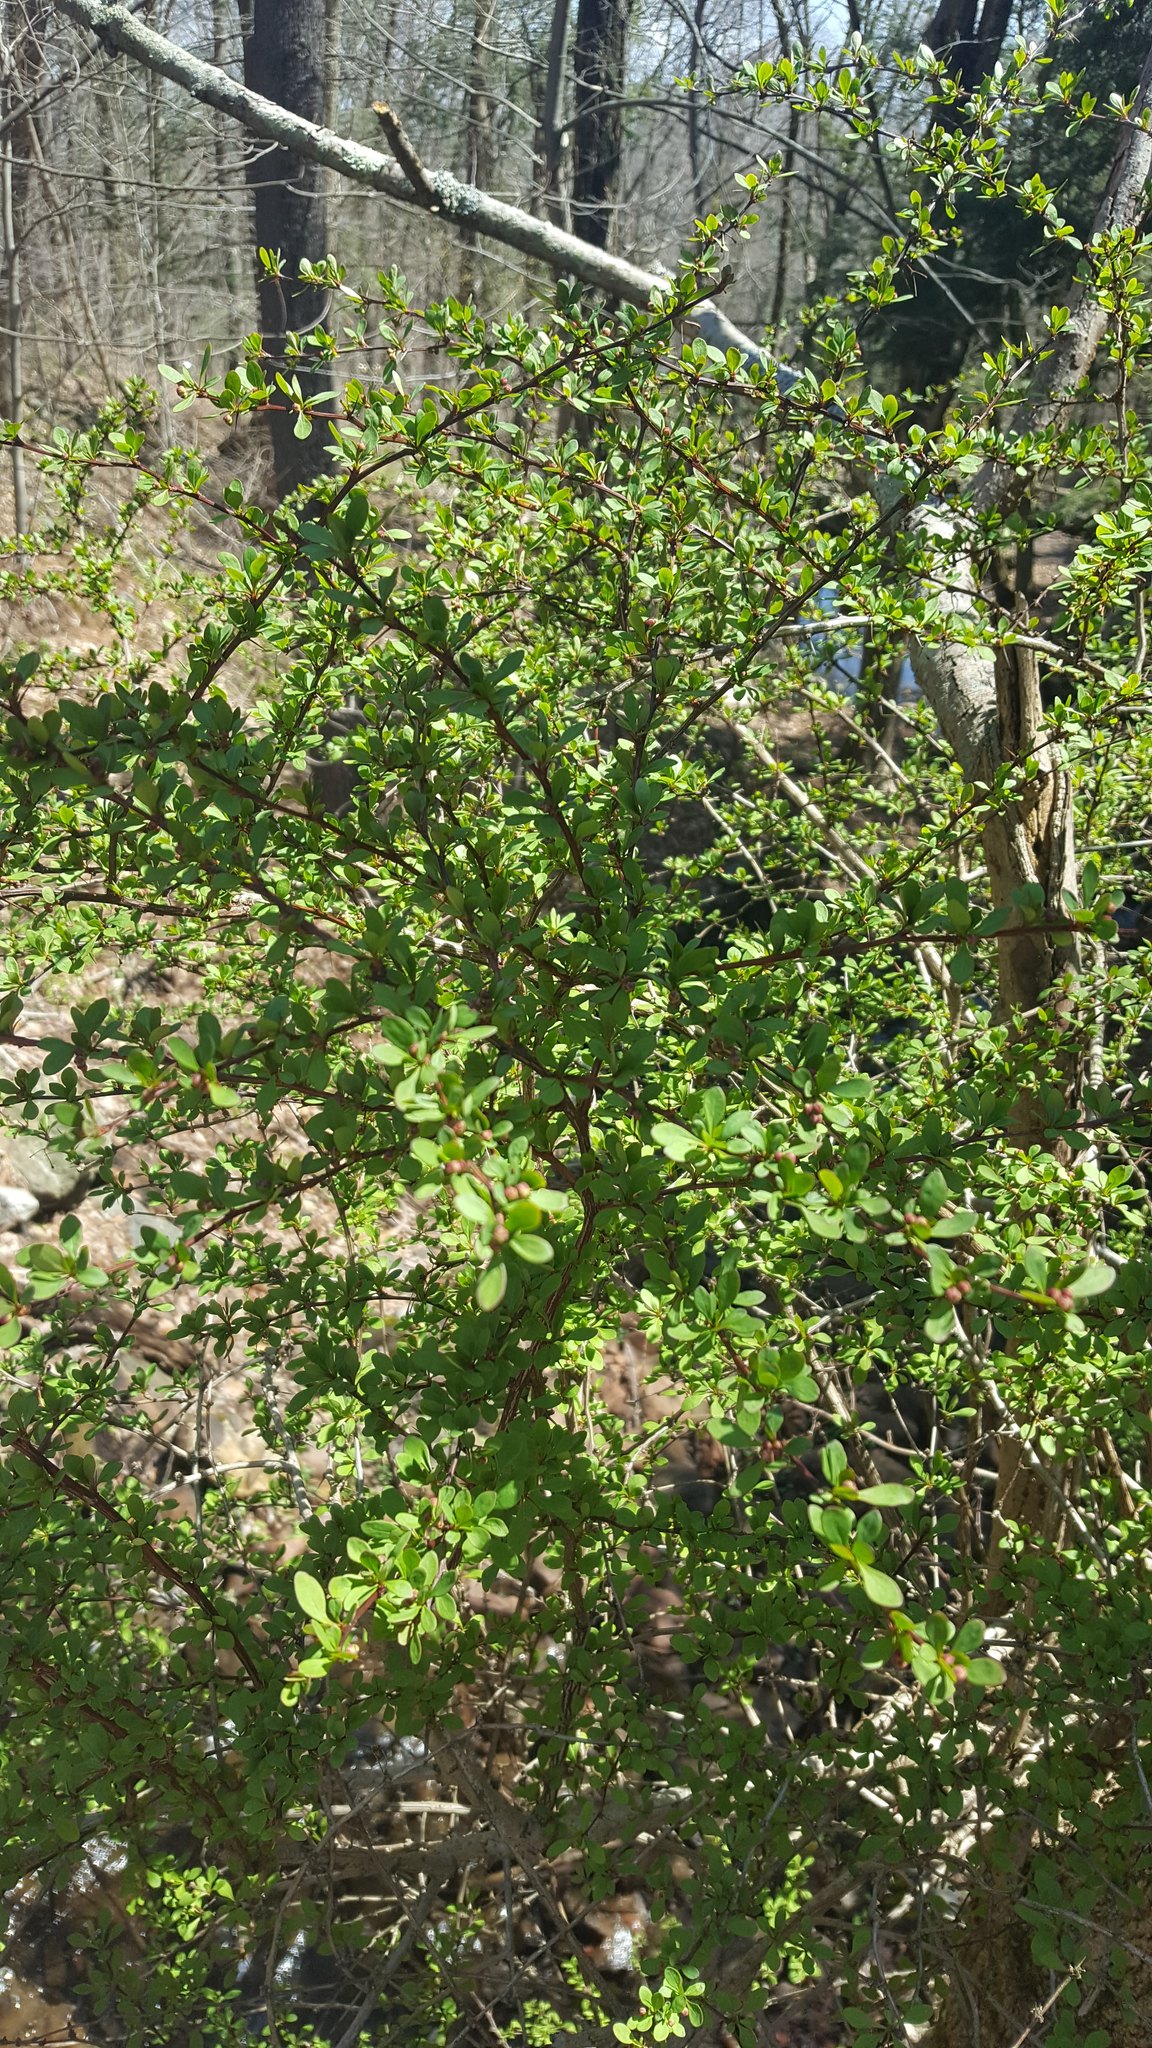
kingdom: Plantae
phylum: Tracheophyta
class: Magnoliopsida
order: Ranunculales
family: Berberidaceae
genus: Berberis
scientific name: Berberis thunbergii
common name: Japanese barberry
